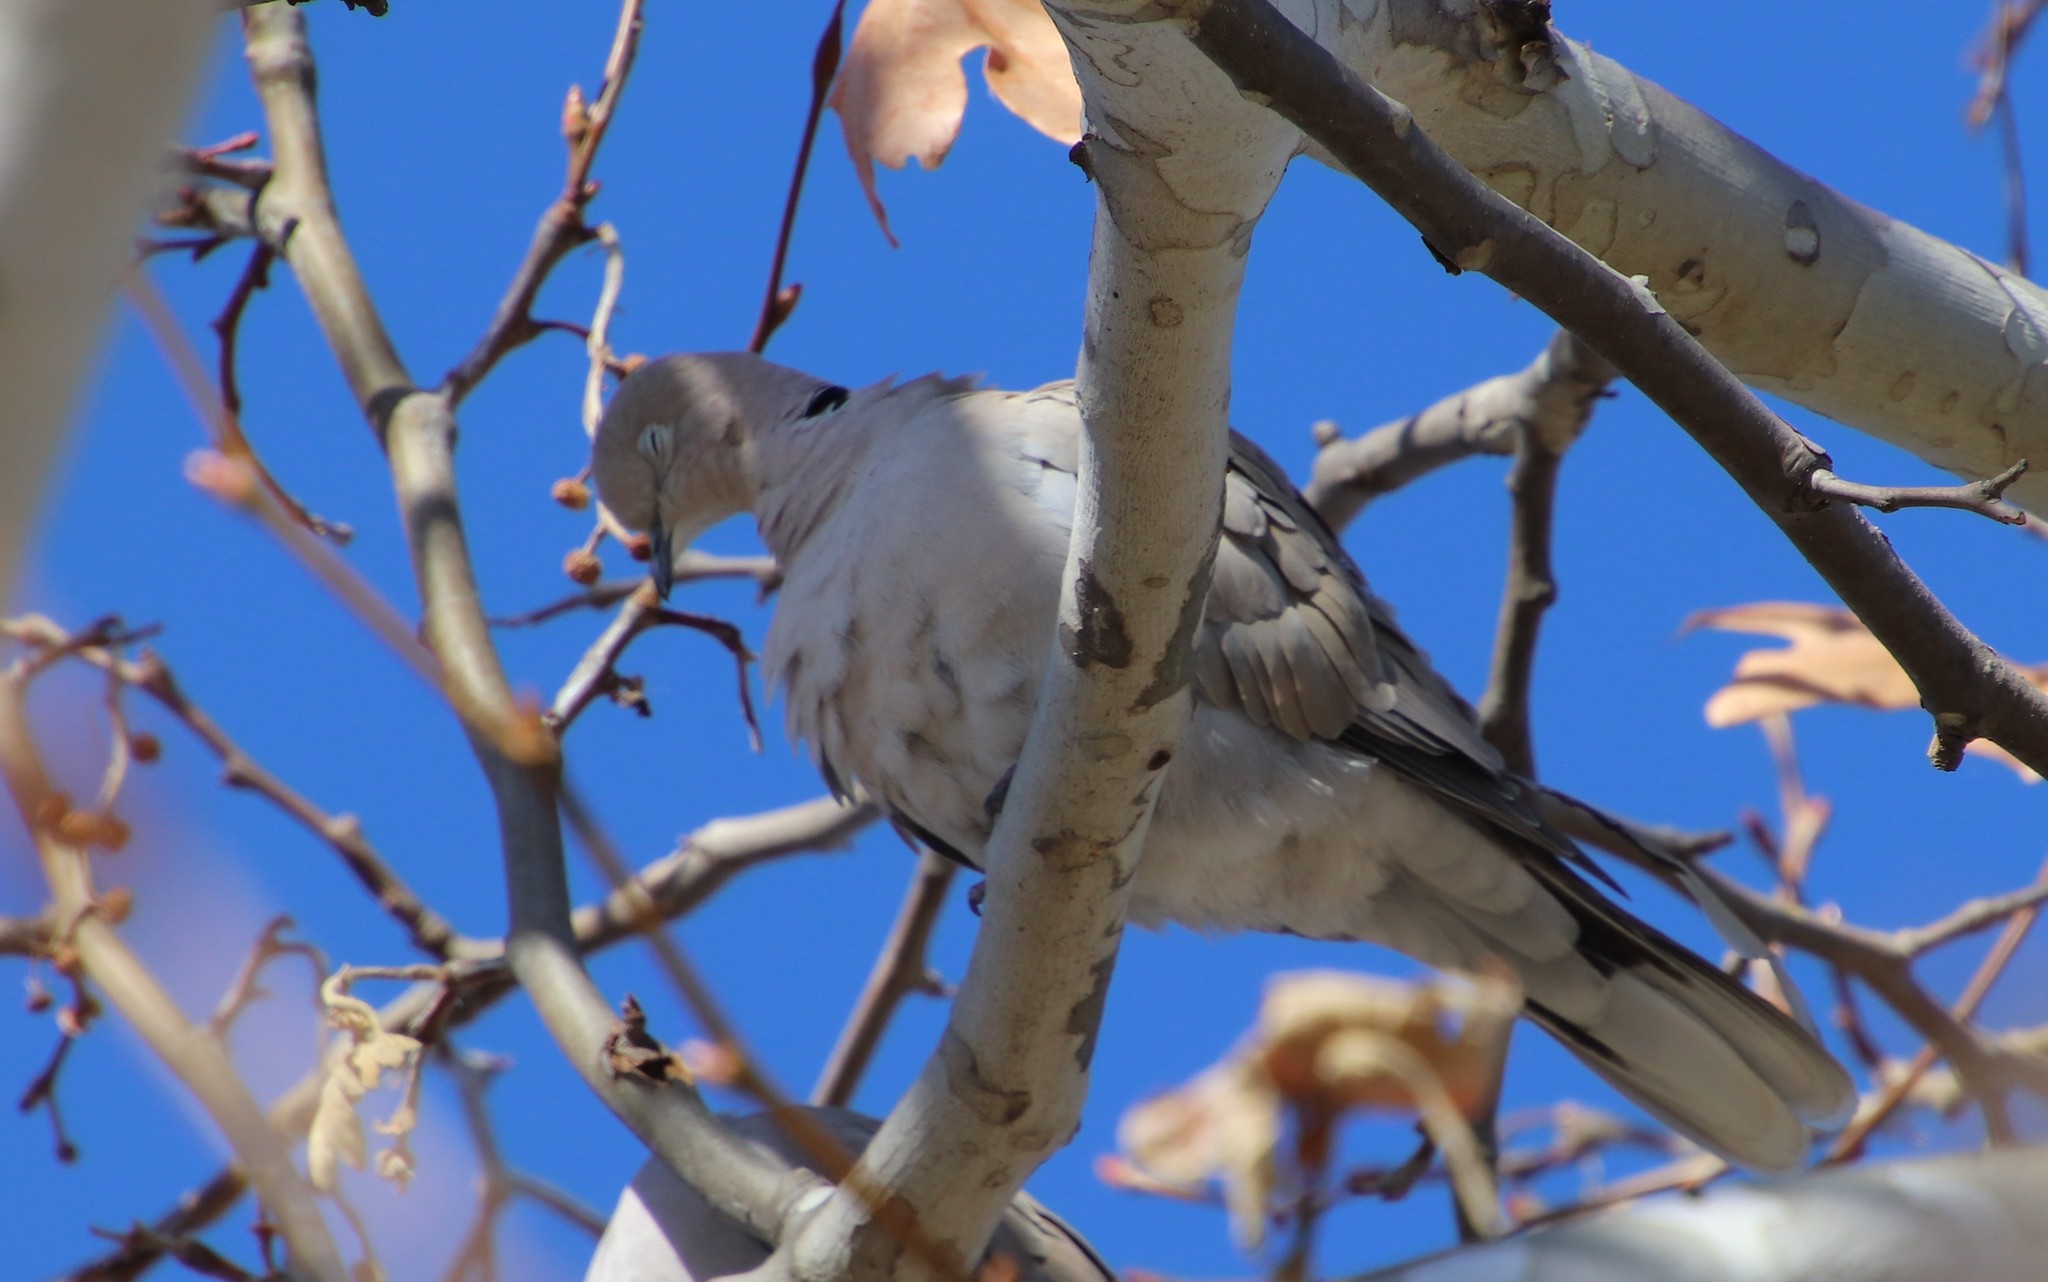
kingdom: Animalia
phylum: Chordata
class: Aves
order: Columbiformes
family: Columbidae
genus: Streptopelia
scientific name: Streptopelia decaocto
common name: Eurasian collared dove
